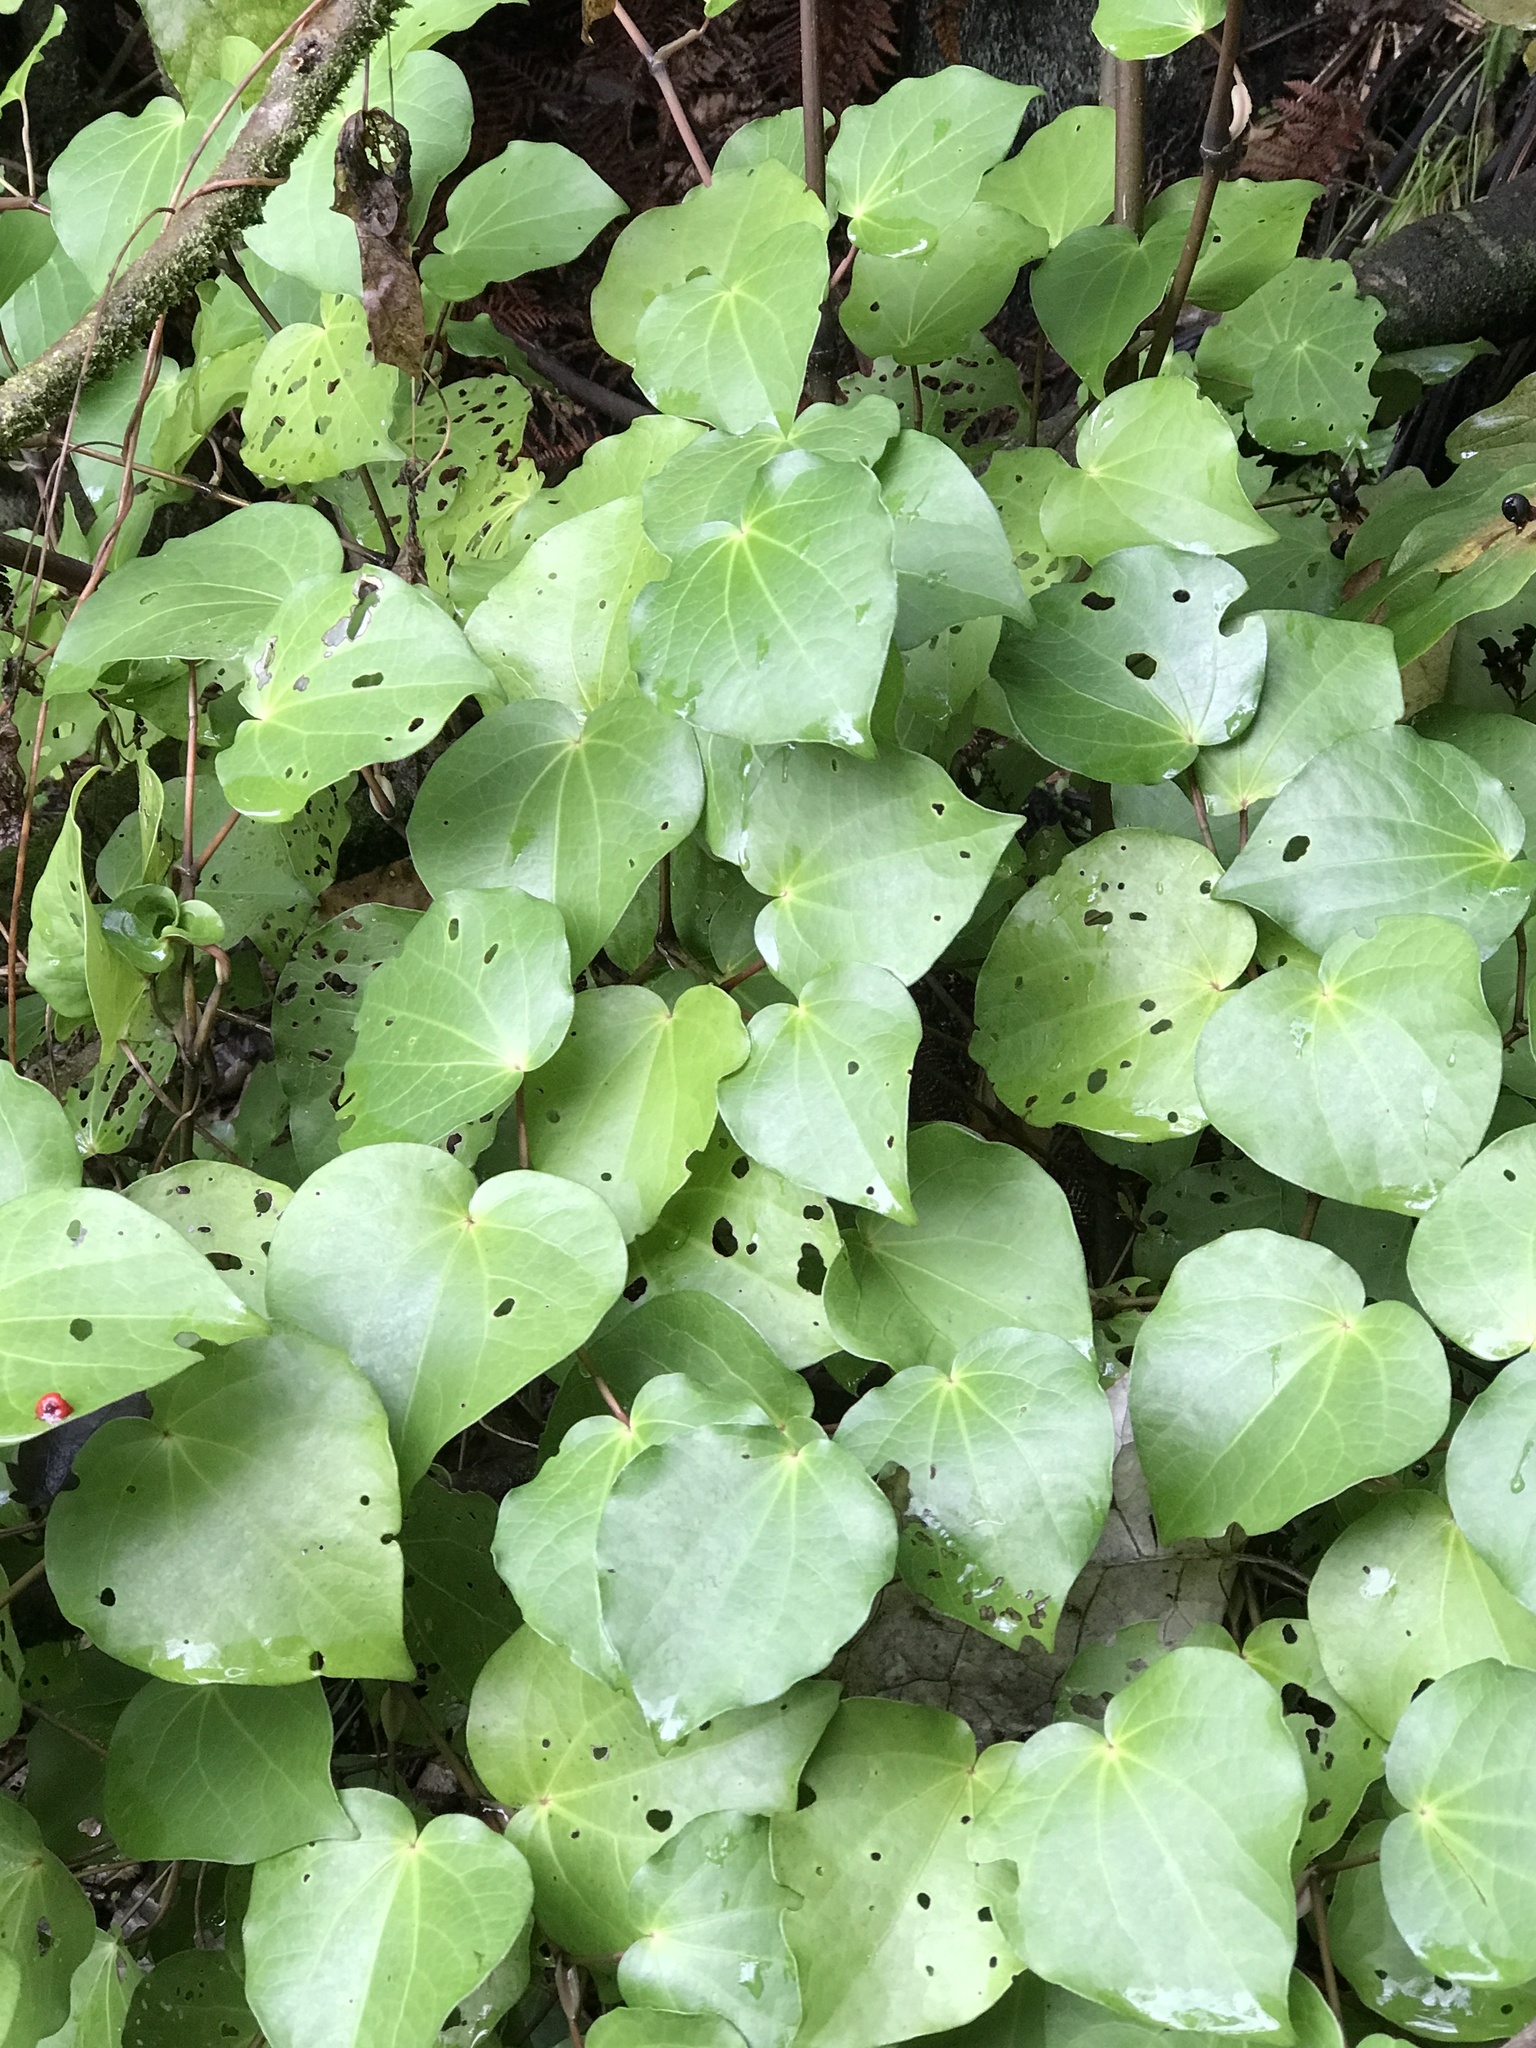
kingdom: Plantae
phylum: Tracheophyta
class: Magnoliopsida
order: Piperales
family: Piperaceae
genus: Macropiper
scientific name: Macropiper excelsum
